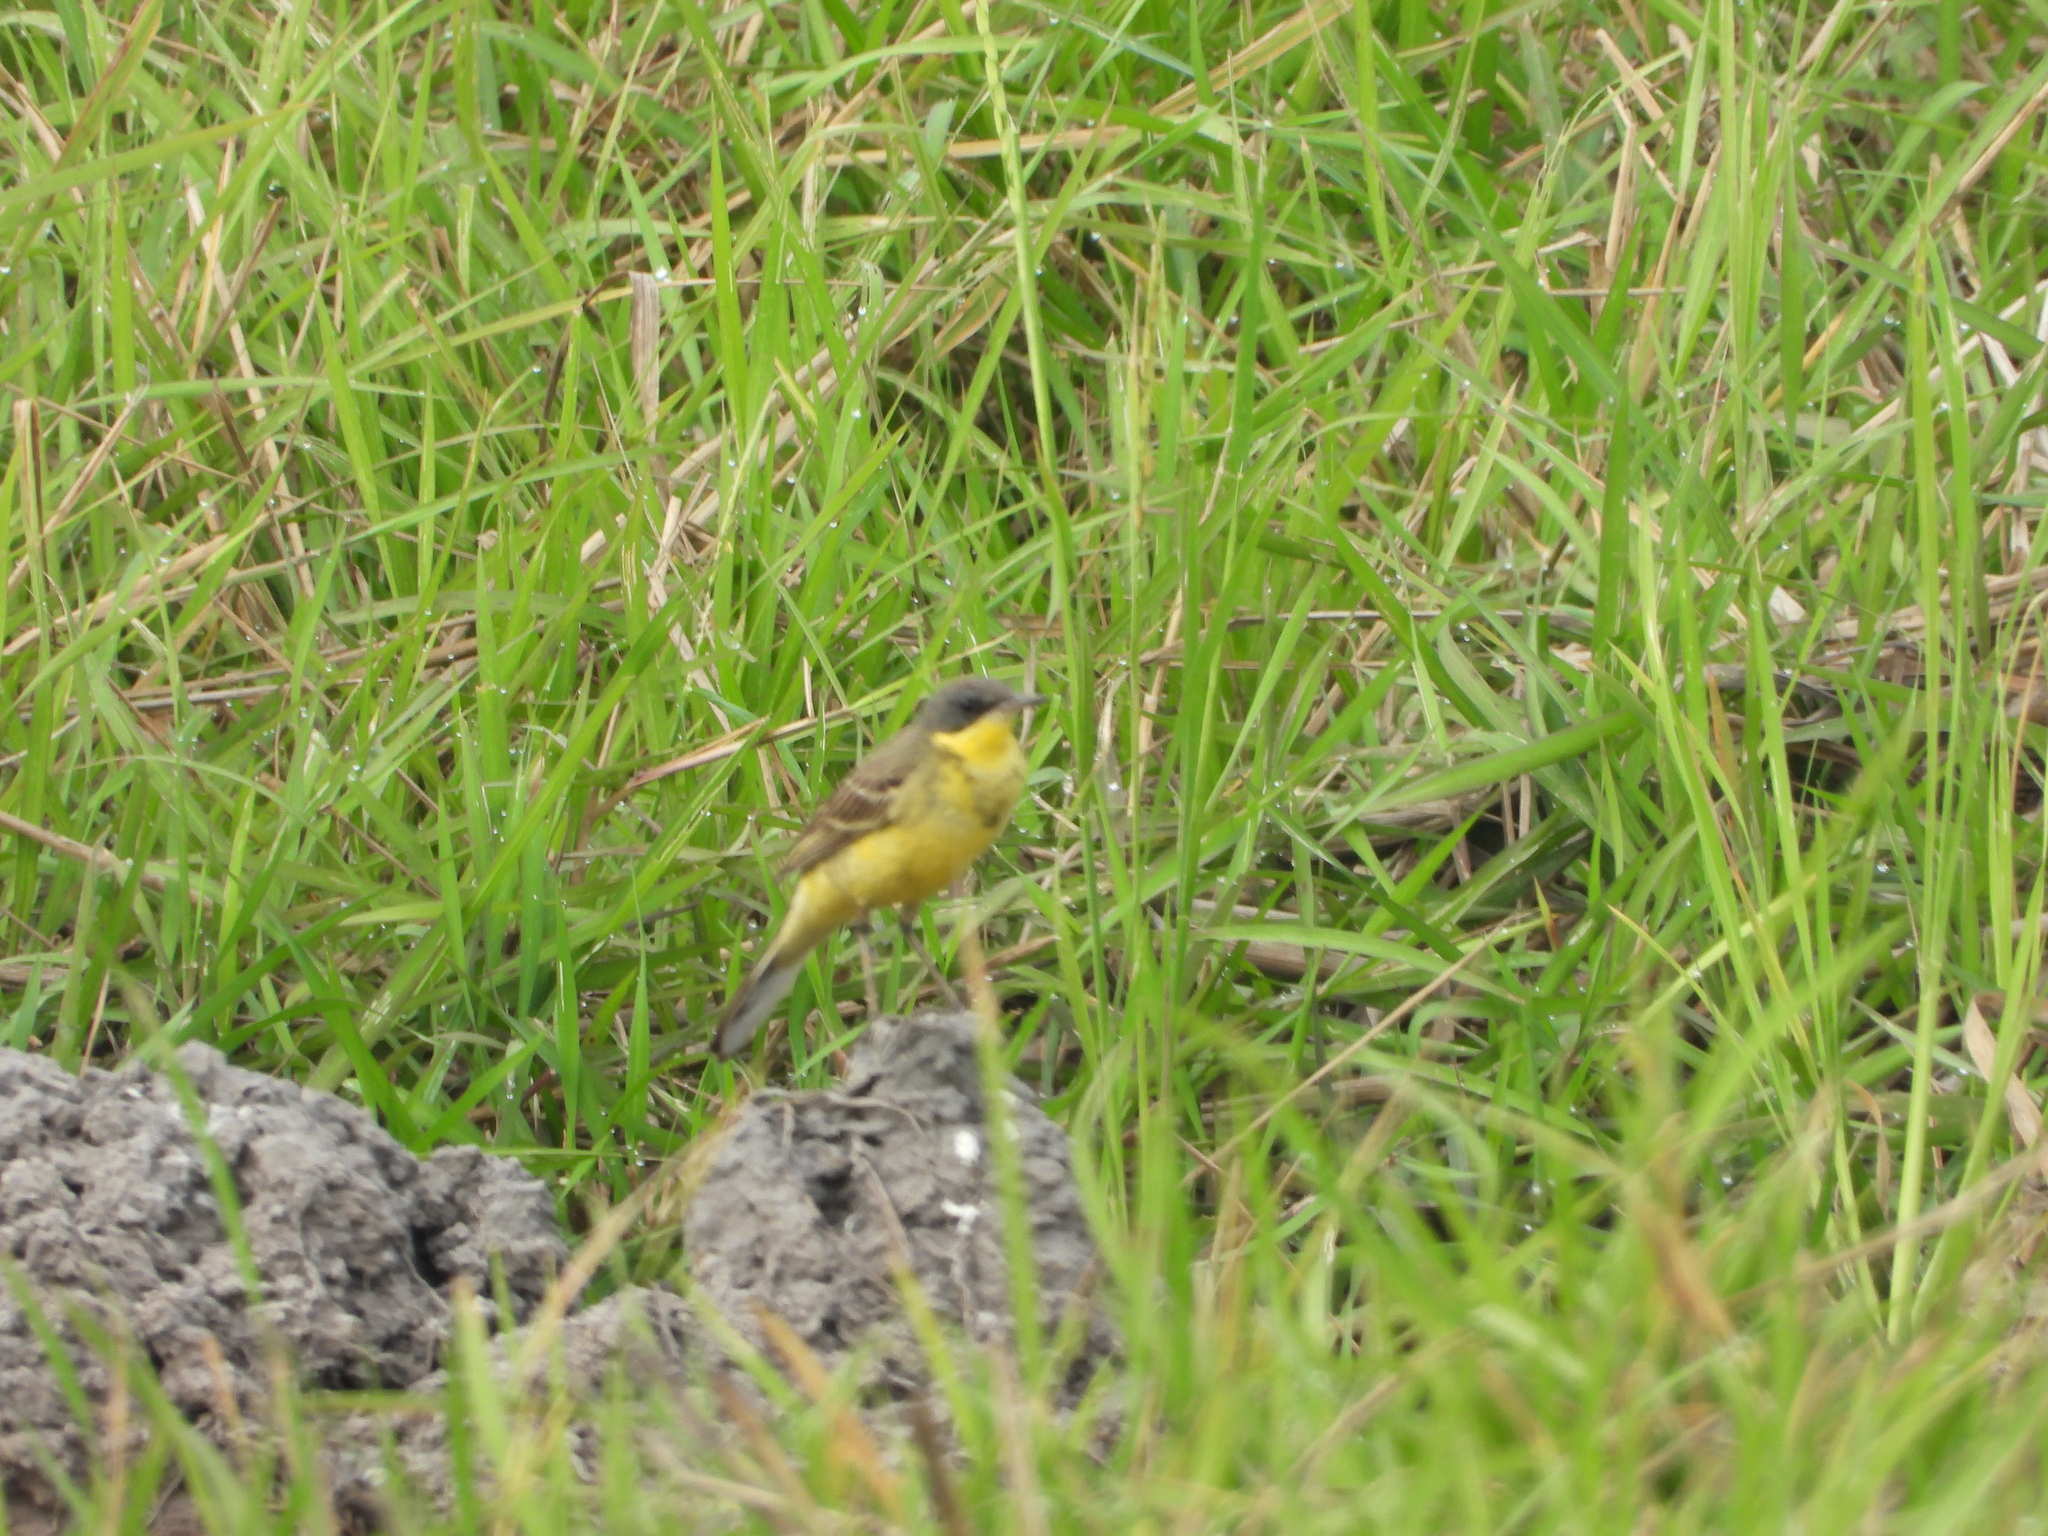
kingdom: Animalia
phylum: Chordata
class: Aves
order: Passeriformes
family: Motacillidae
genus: Motacilla
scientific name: Motacilla tschutschensis
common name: Eastern yellow wagtail
